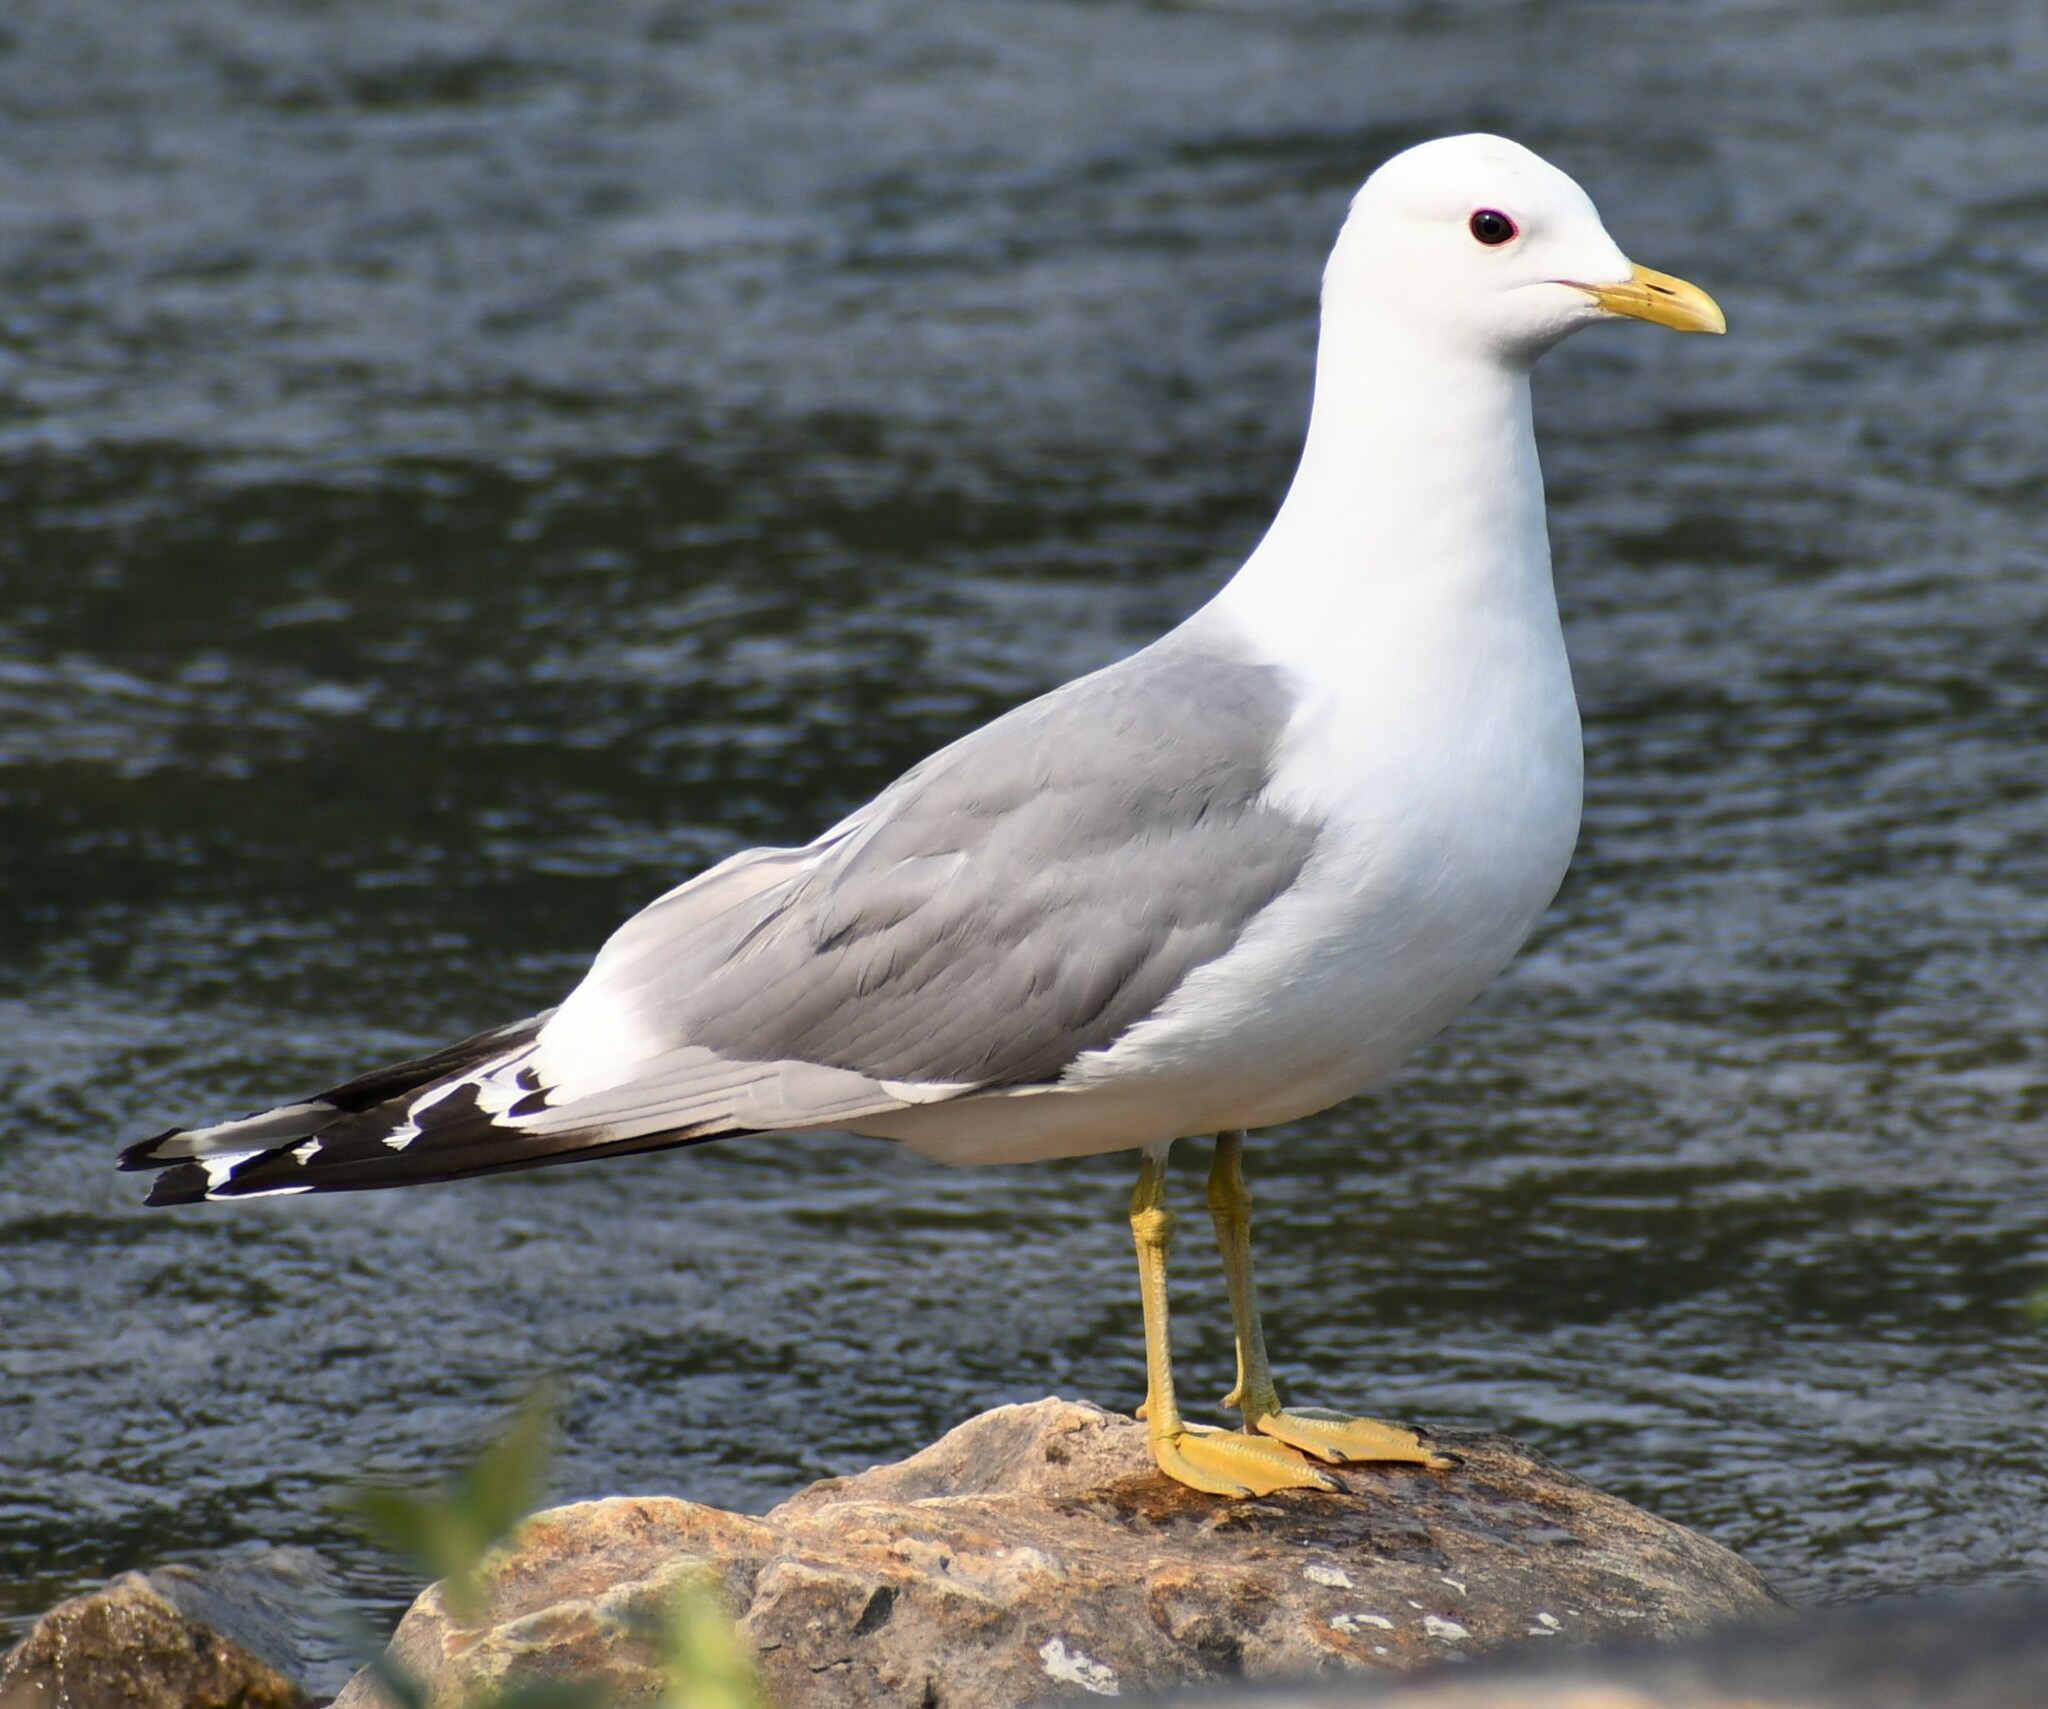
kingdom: Animalia
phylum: Chordata
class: Aves
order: Charadriiformes
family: Laridae
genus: Larus
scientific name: Larus brachyrhynchus
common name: Short-billed gull
